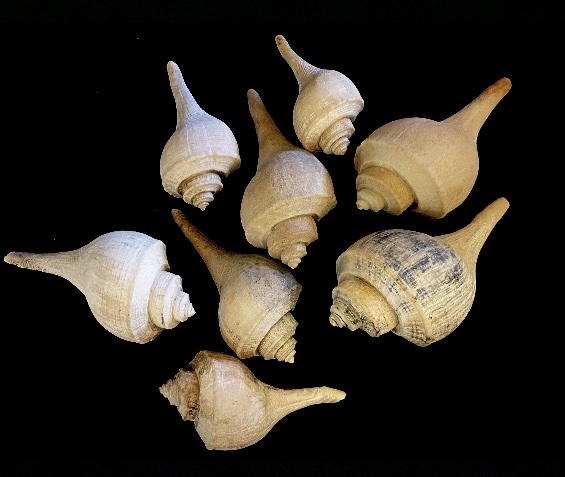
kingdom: Animalia
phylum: Mollusca
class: Gastropoda
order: Neogastropoda
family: Busyconidae
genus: Busycotypus
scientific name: Busycotypus canaliculatus
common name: Channeled whelk
